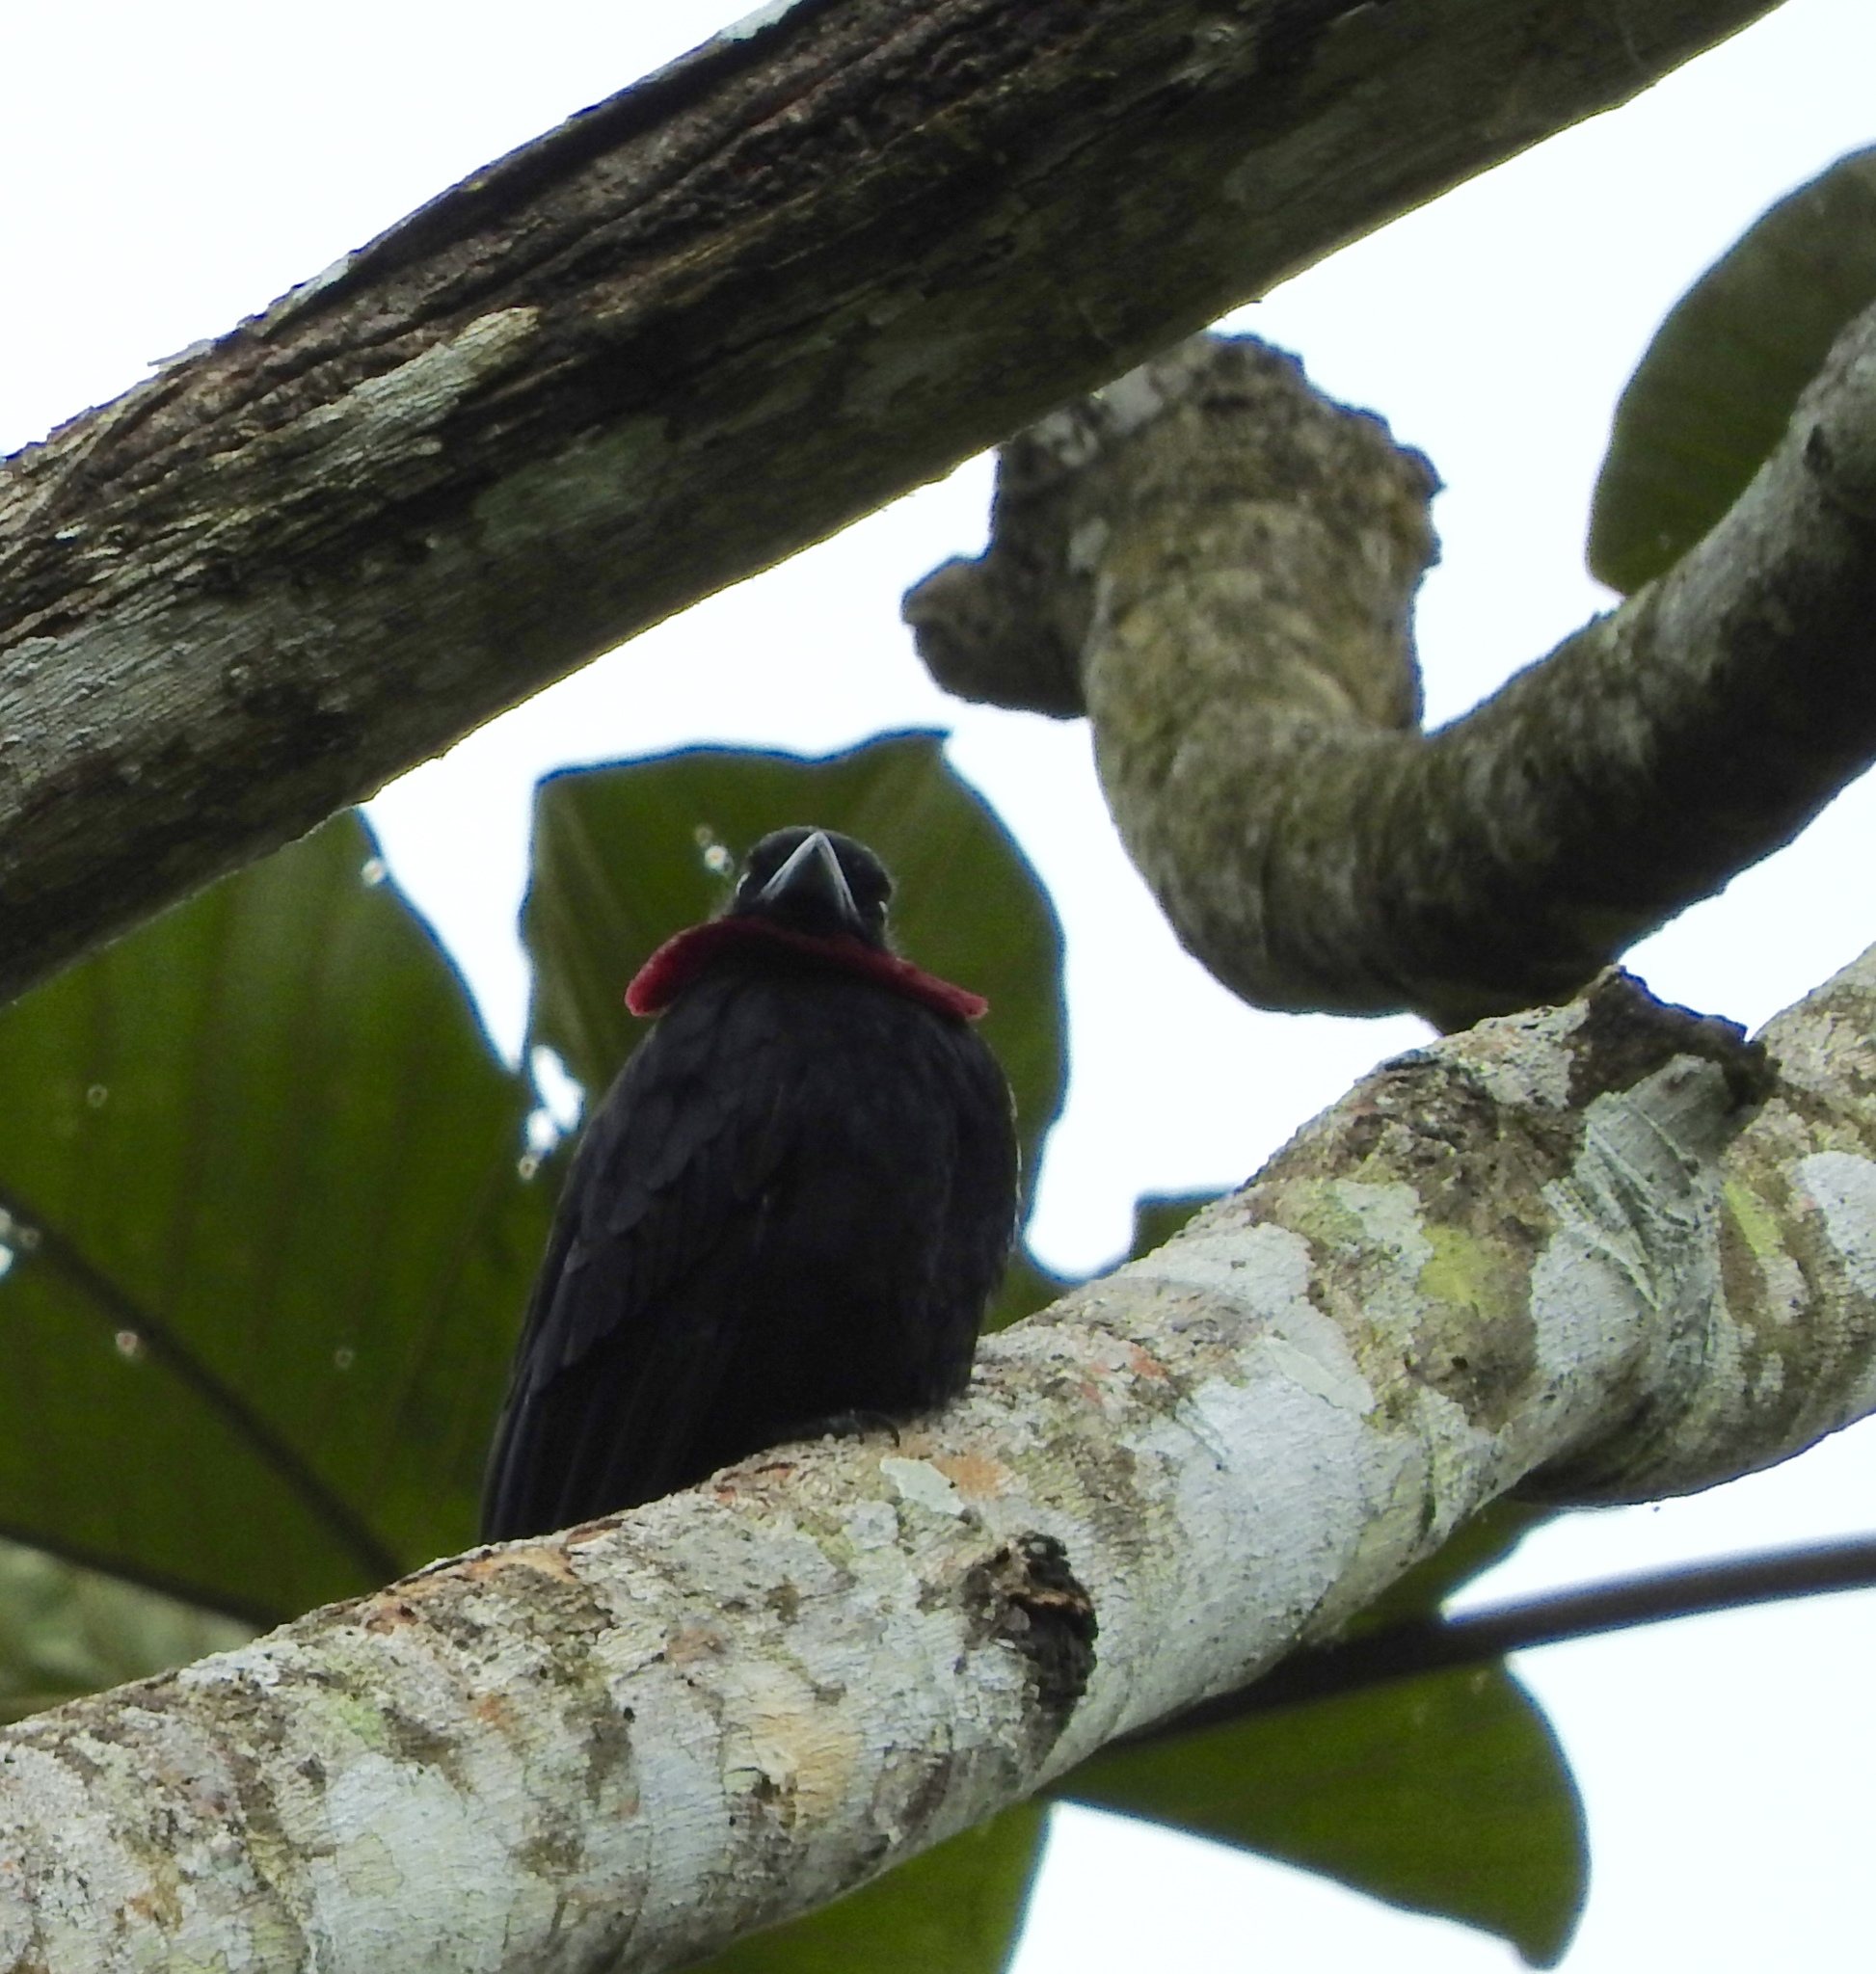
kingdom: Animalia
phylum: Chordata
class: Aves
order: Passeriformes
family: Cotingidae
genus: Querula
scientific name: Querula purpurata
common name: Purple-throated fruitcrow
